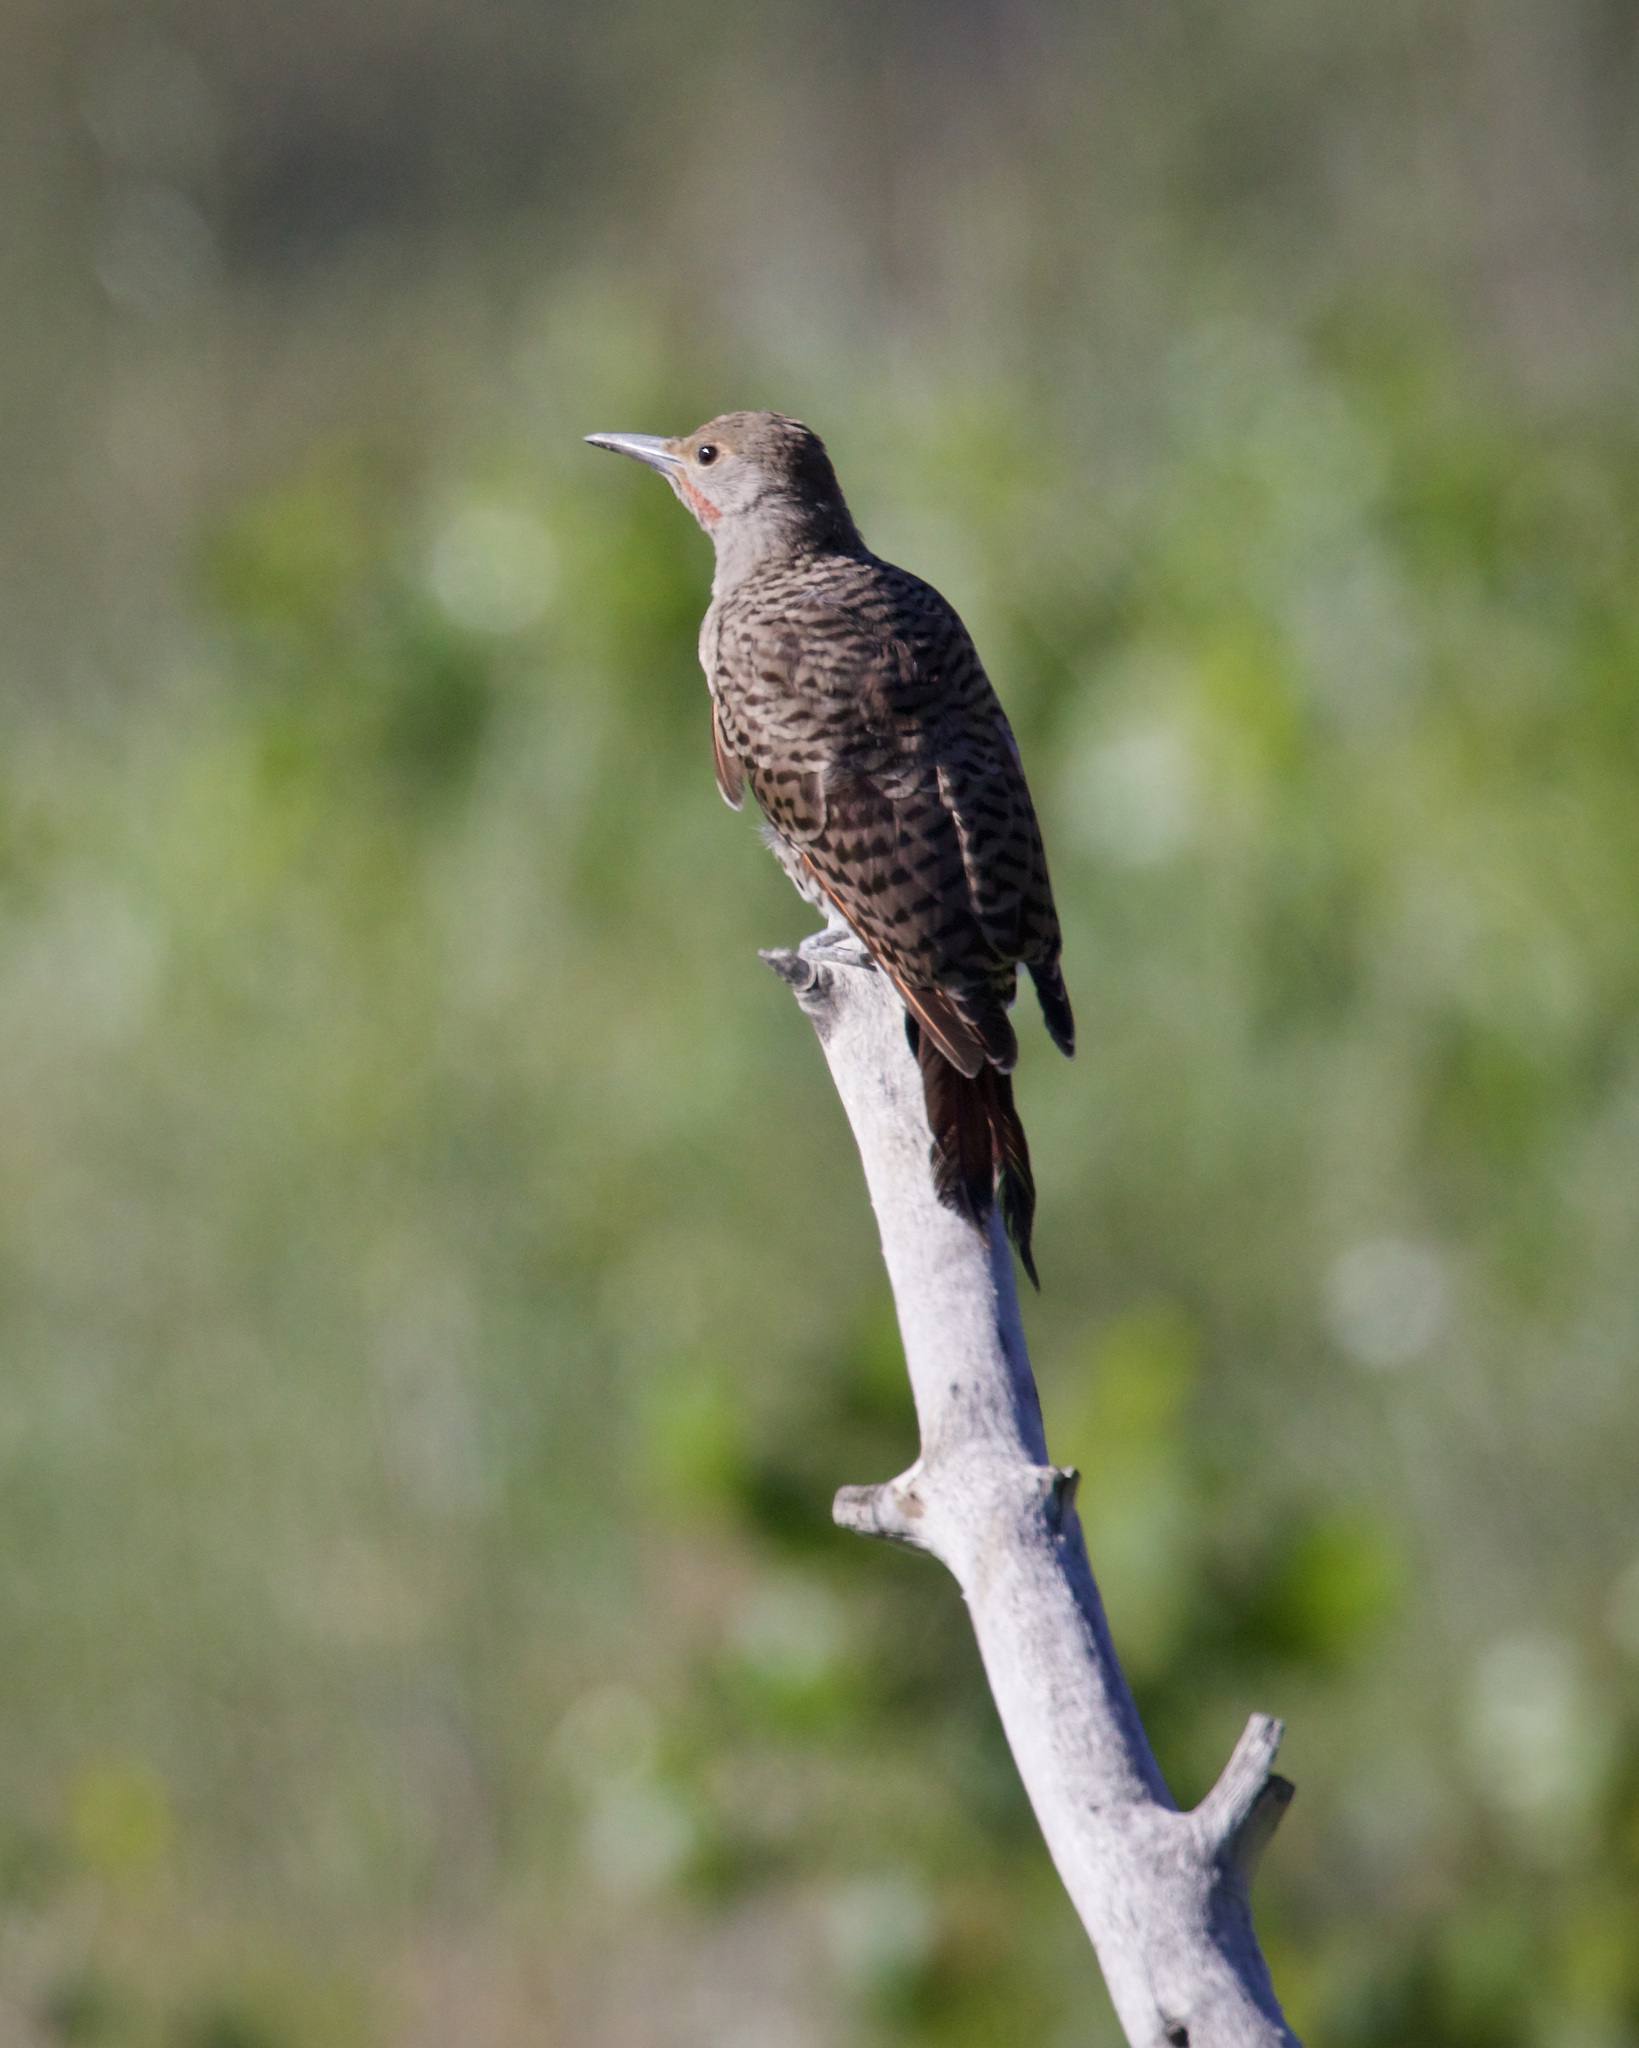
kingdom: Animalia
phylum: Chordata
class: Aves
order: Piciformes
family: Picidae
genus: Colaptes
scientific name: Colaptes auratus
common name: Northern flicker
